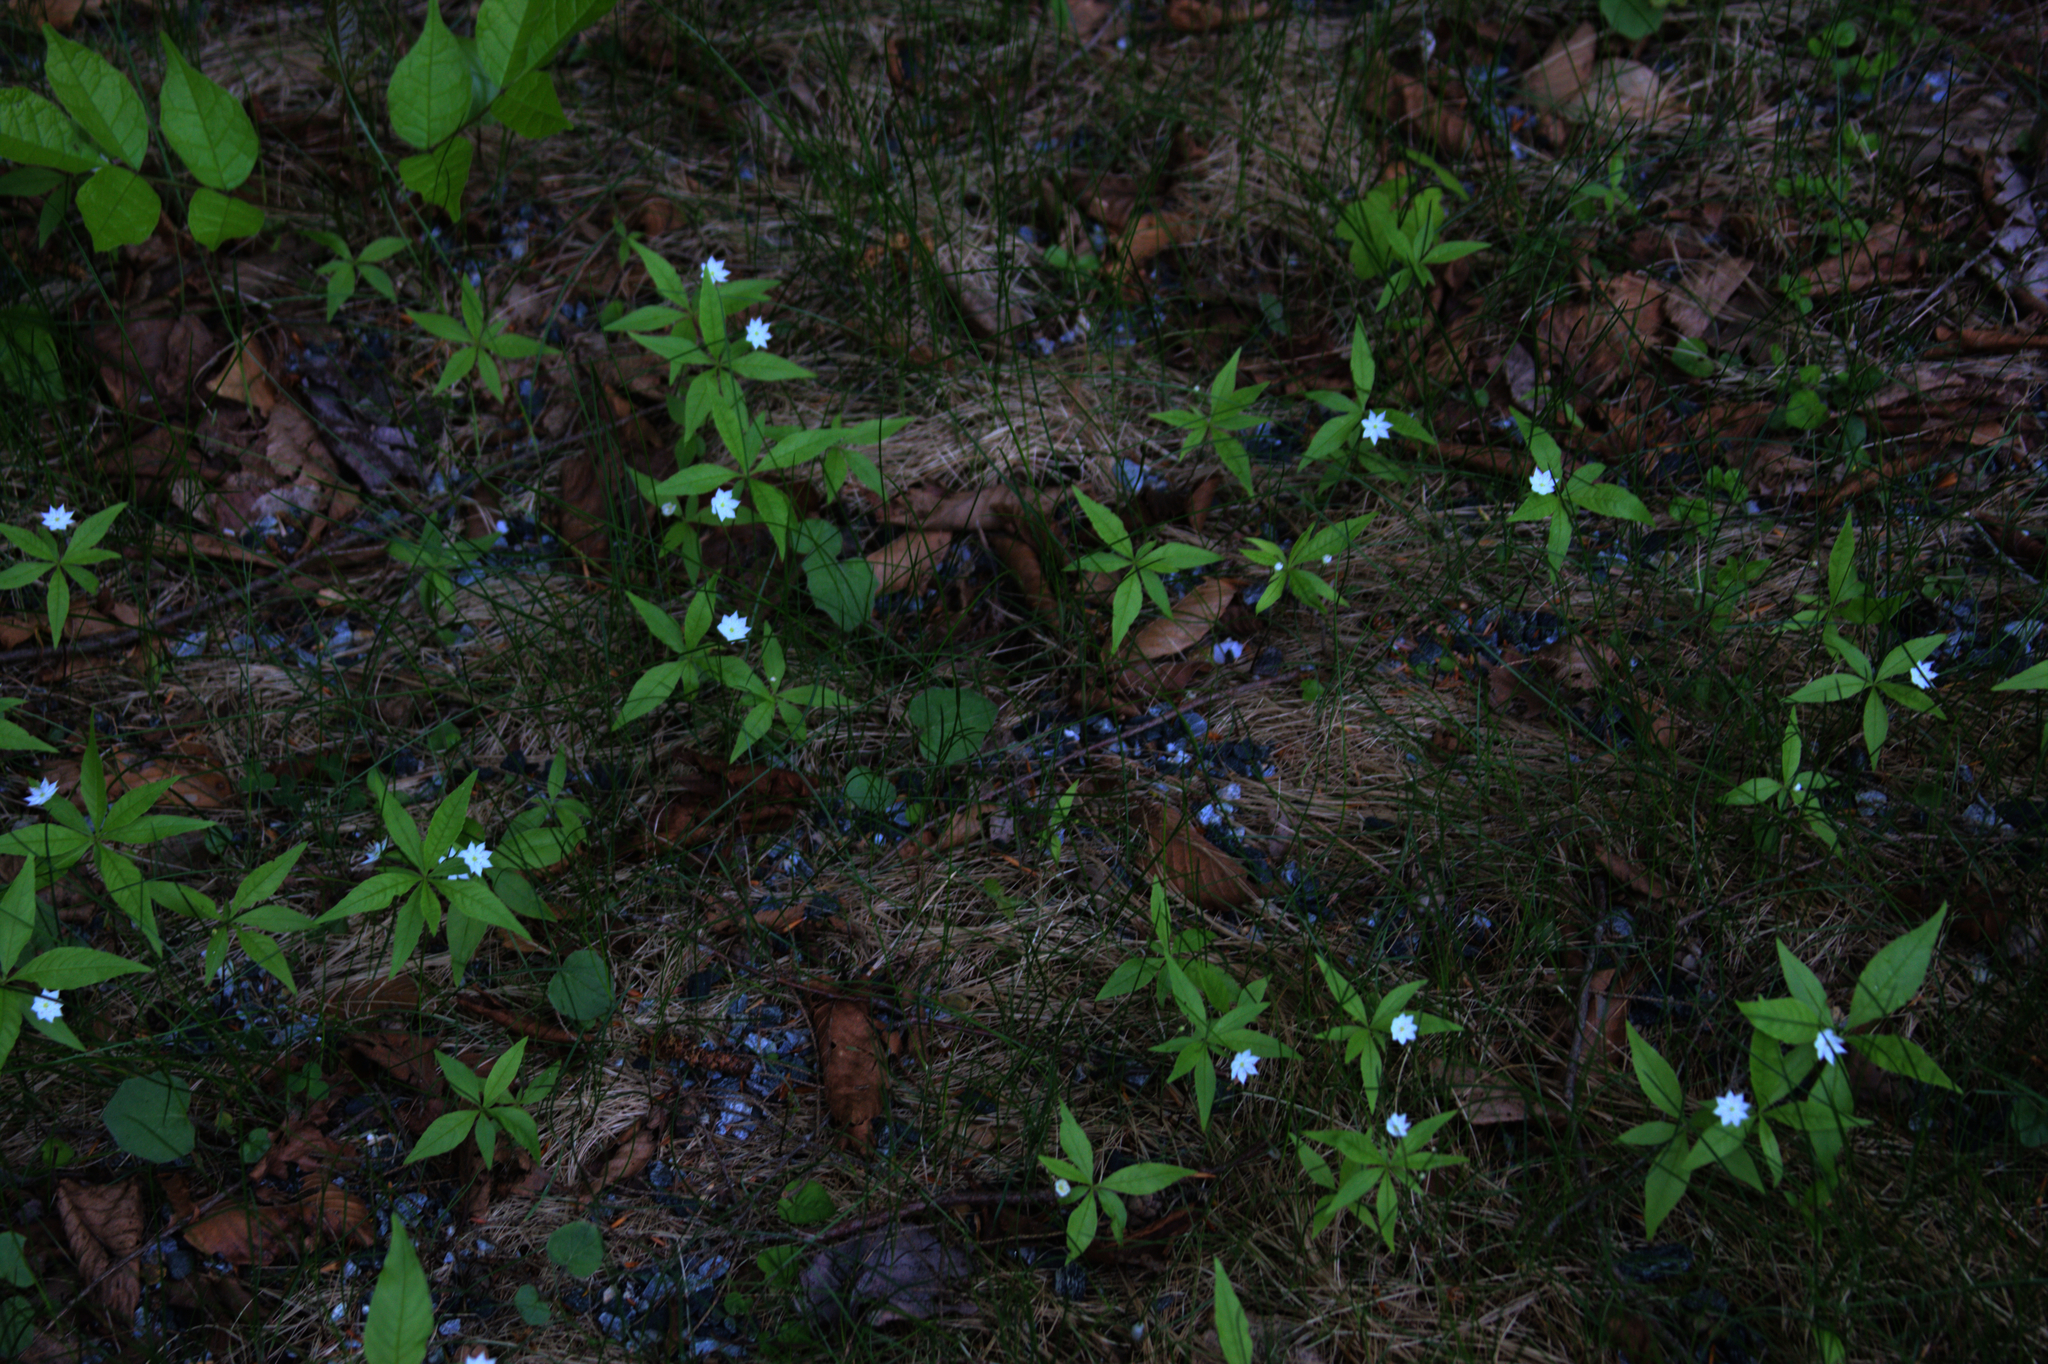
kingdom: Plantae
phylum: Tracheophyta
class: Magnoliopsida
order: Ericales
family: Primulaceae
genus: Lysimachia
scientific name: Lysimachia borealis
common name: American starflower
